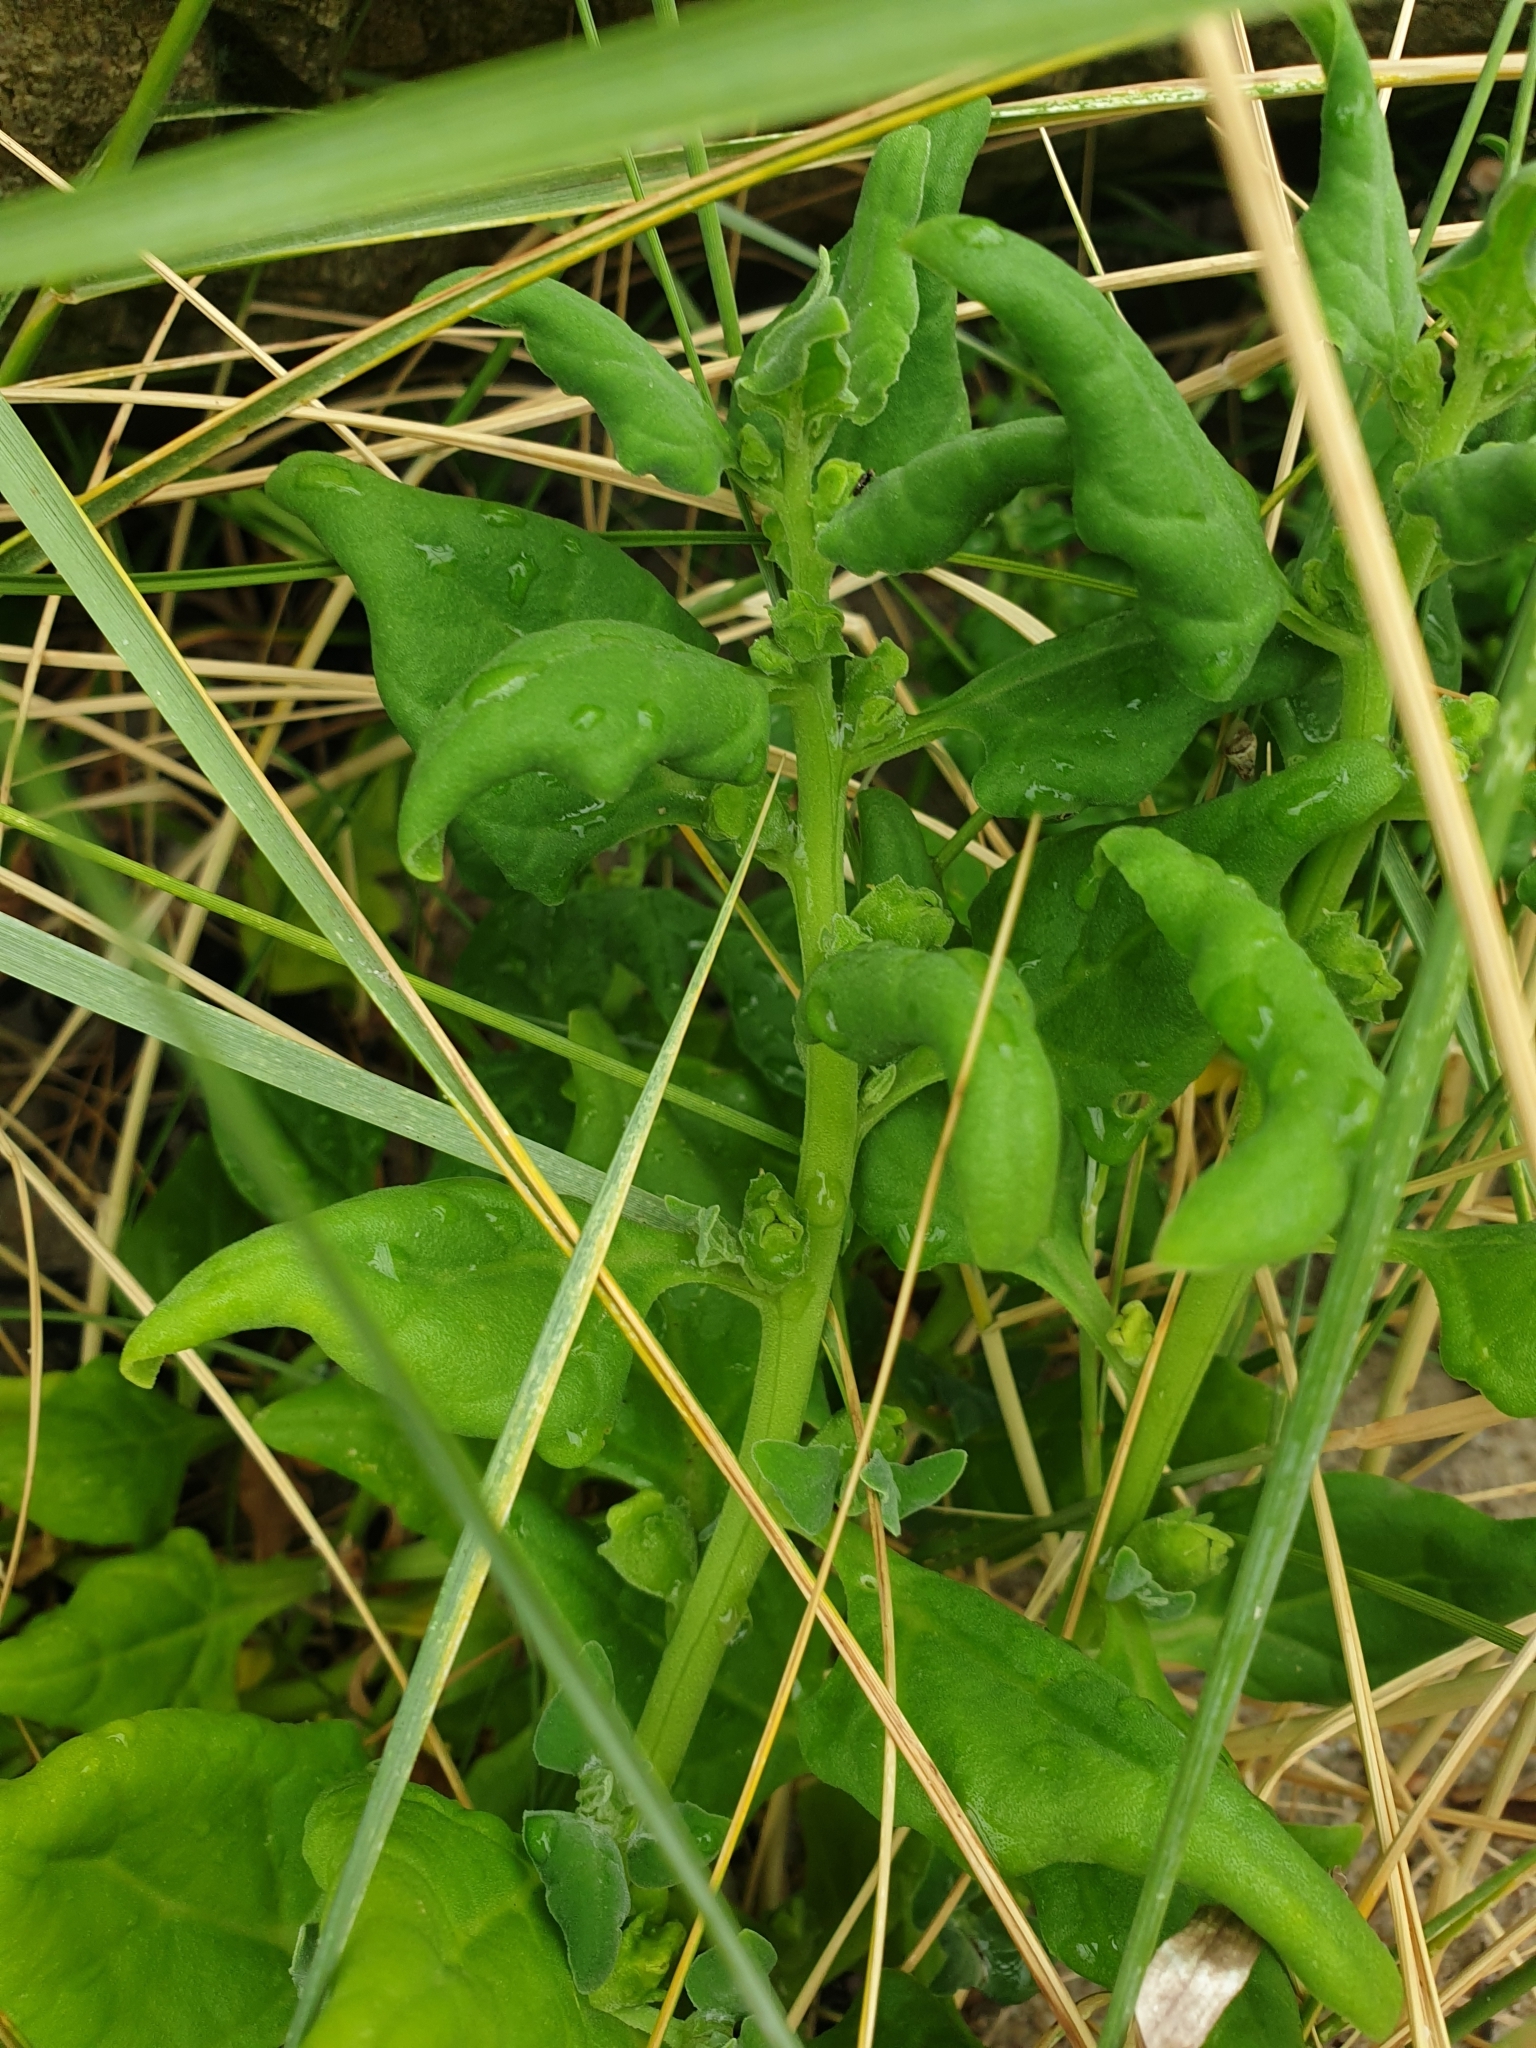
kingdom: Plantae
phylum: Tracheophyta
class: Magnoliopsida
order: Caryophyllales
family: Aizoaceae
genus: Tetragonia
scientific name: Tetragonia tetragonoides
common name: New zealand-spinach
